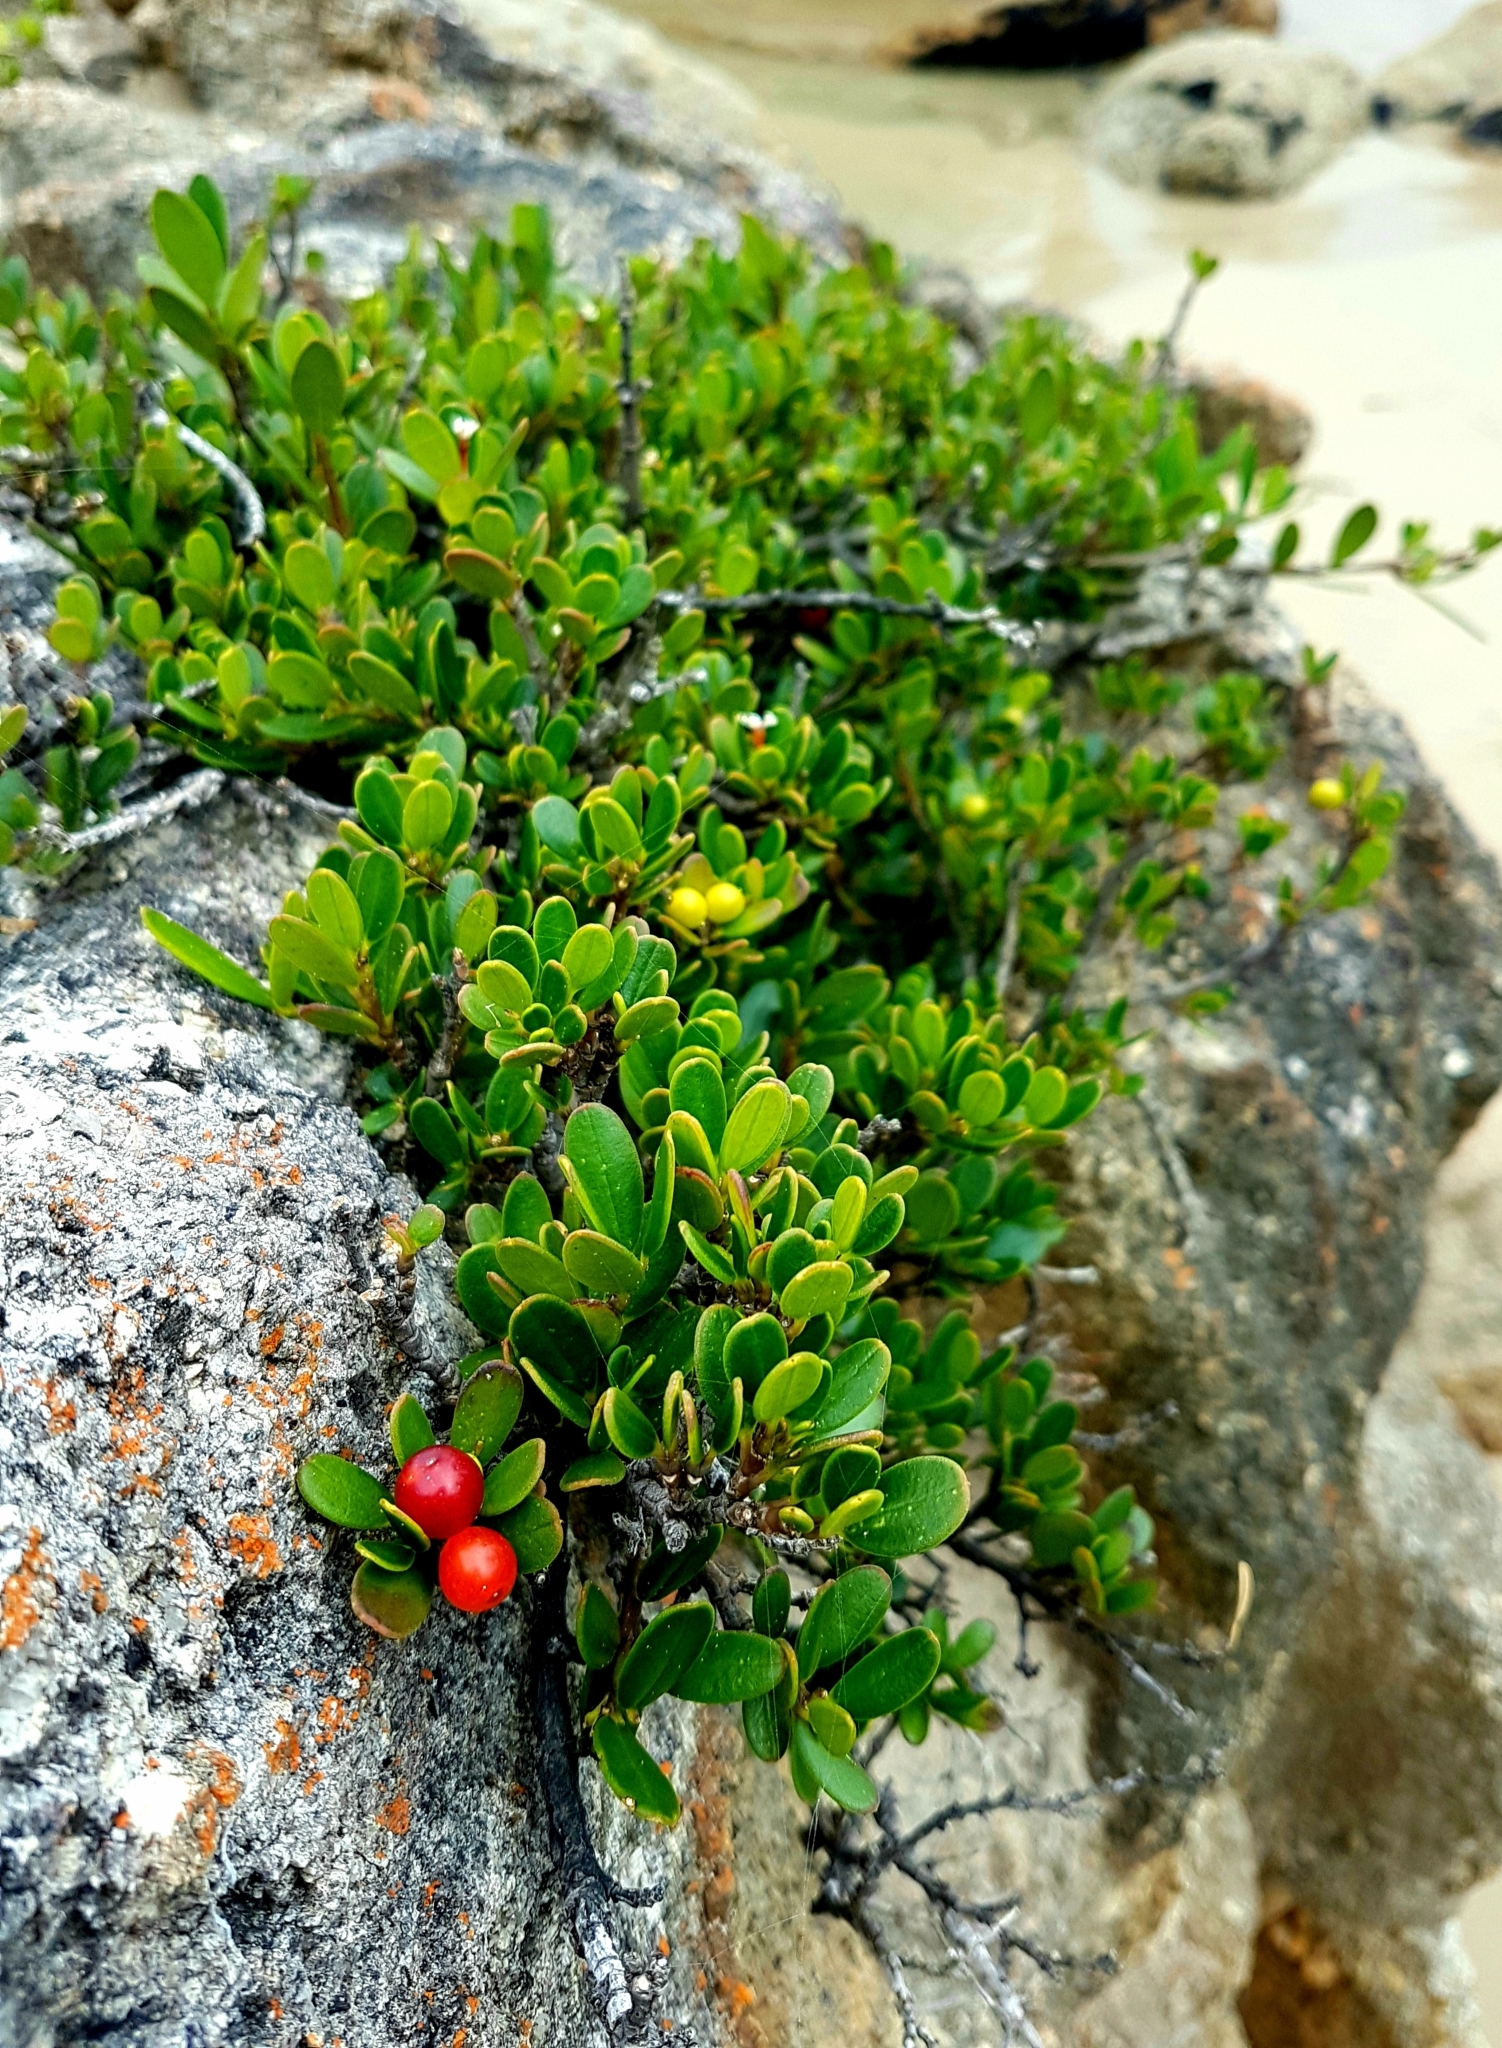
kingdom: Plantae
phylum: Tracheophyta
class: Magnoliopsida
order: Gentianales
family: Apocynaceae
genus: Alyxia
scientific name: Alyxia buxifolia
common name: Dysentery-bush
